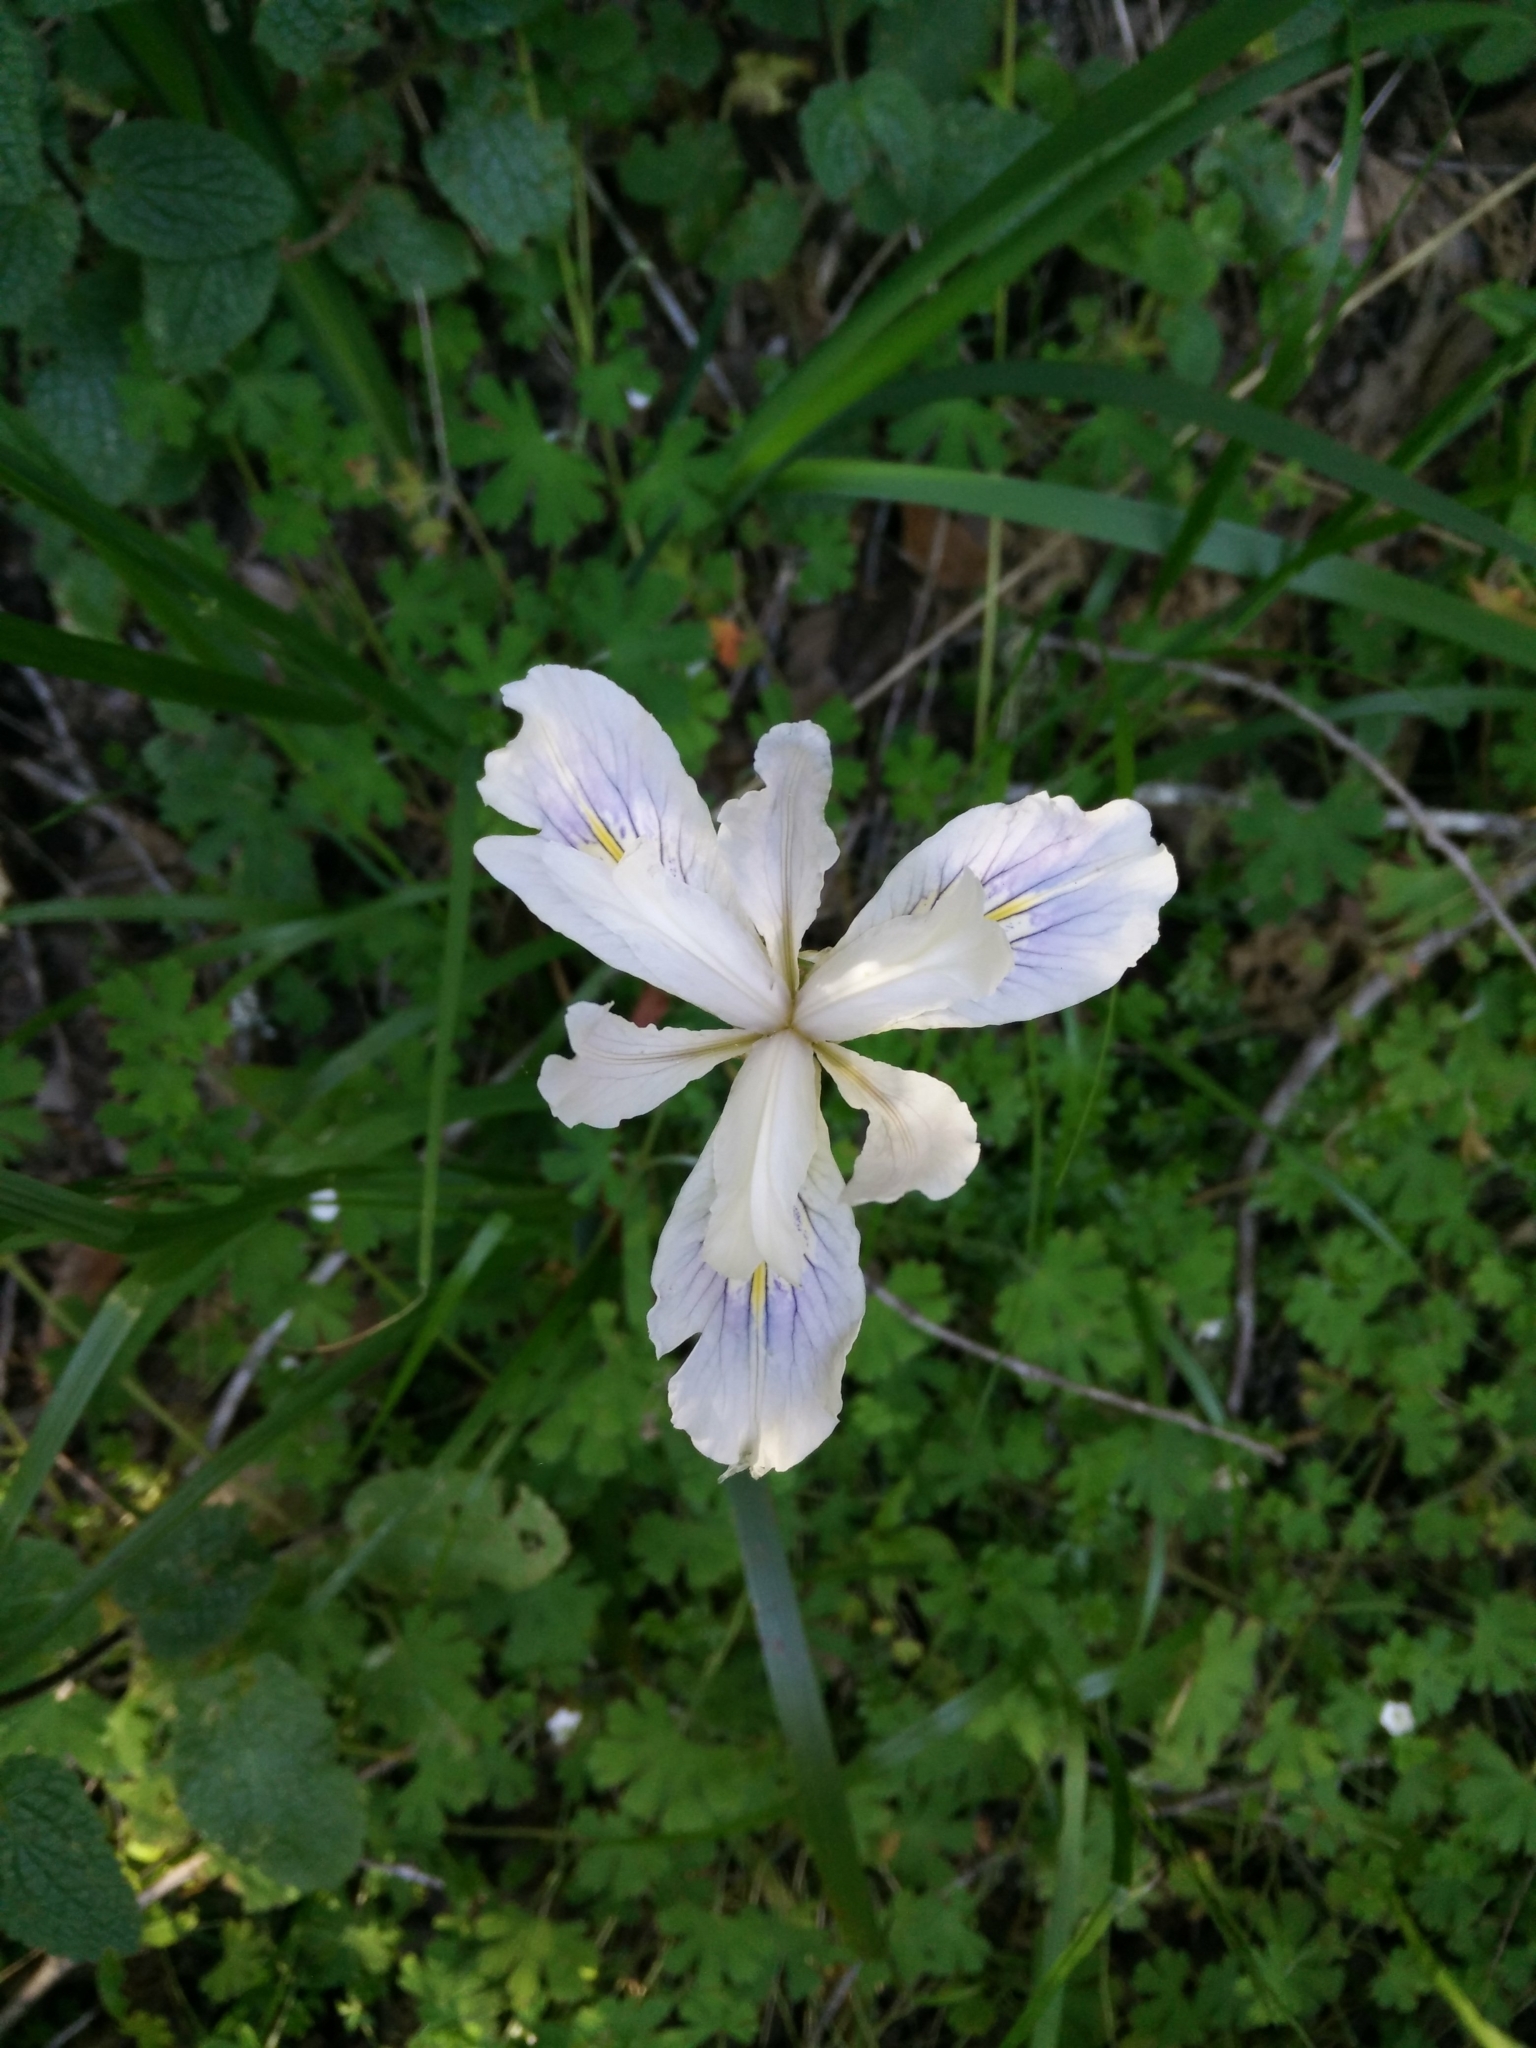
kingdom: Plantae
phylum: Tracheophyta
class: Liliopsida
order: Asparagales
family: Iridaceae
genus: Iris
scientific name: Iris douglasiana
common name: Marin iris
